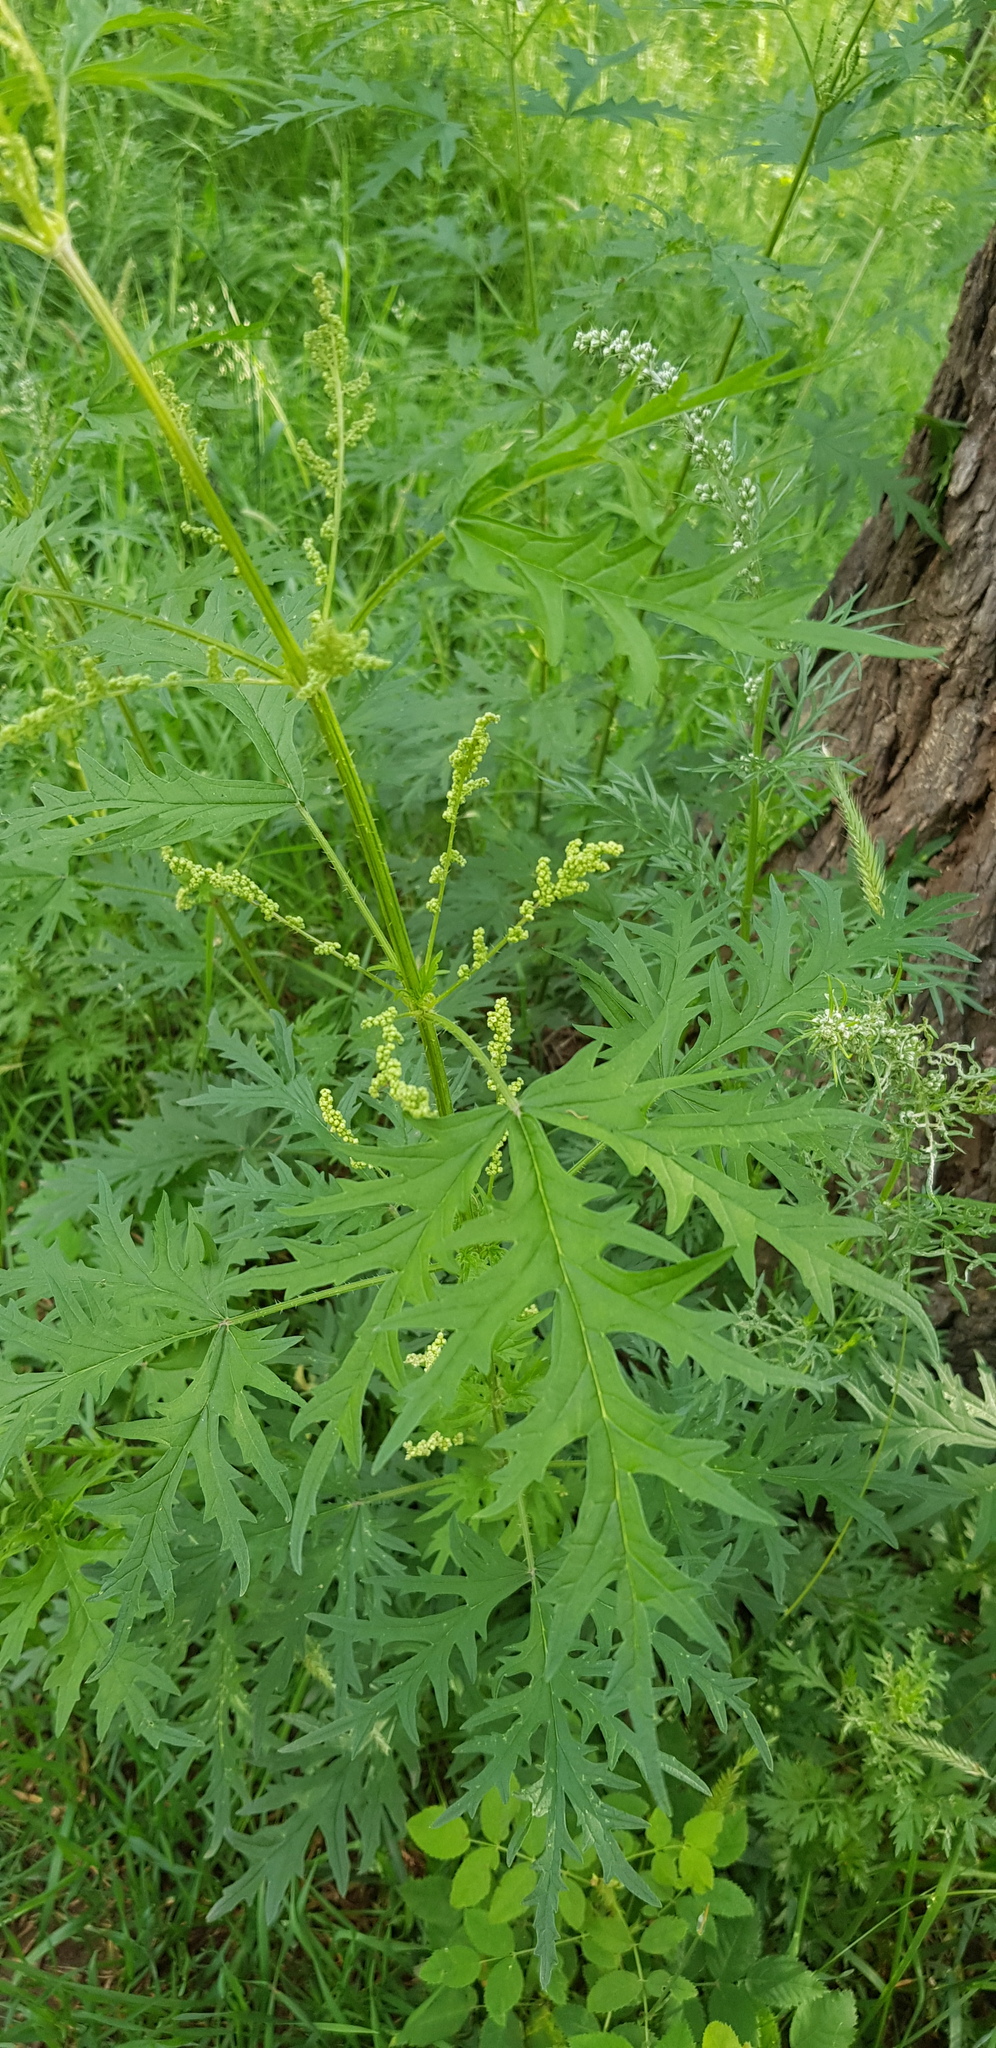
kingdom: Plantae
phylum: Tracheophyta
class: Magnoliopsida
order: Rosales
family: Urticaceae
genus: Urtica
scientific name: Urtica cannabina
